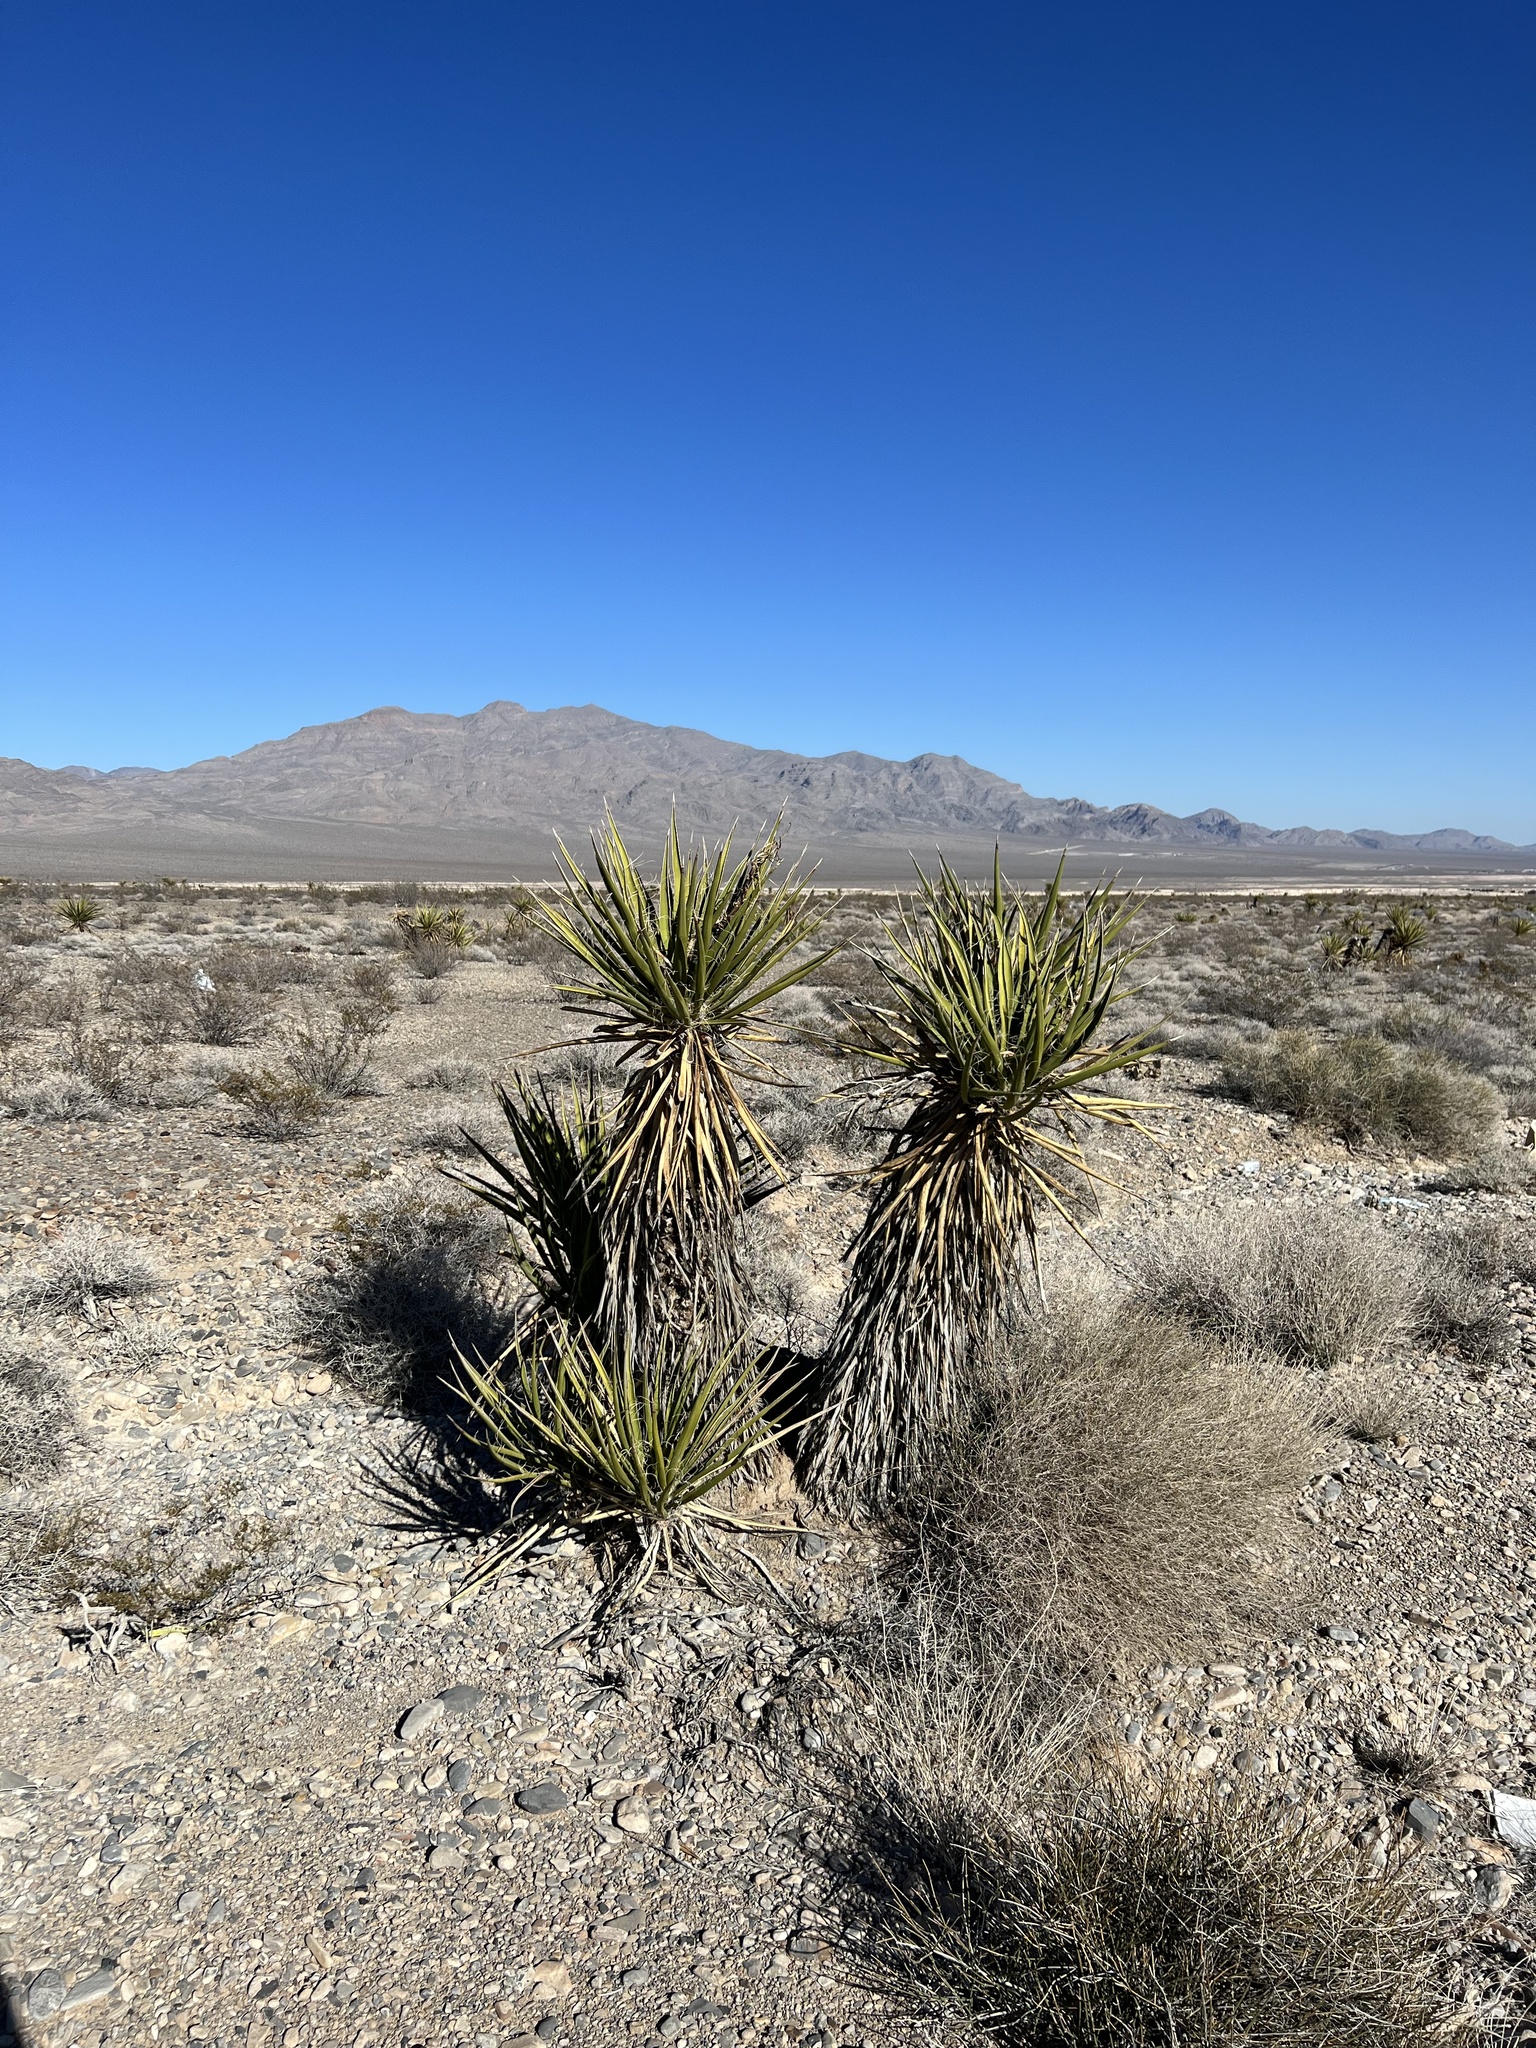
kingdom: Plantae
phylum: Tracheophyta
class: Liliopsida
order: Asparagales
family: Asparagaceae
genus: Yucca
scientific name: Yucca schidigera
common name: Mojave yucca
